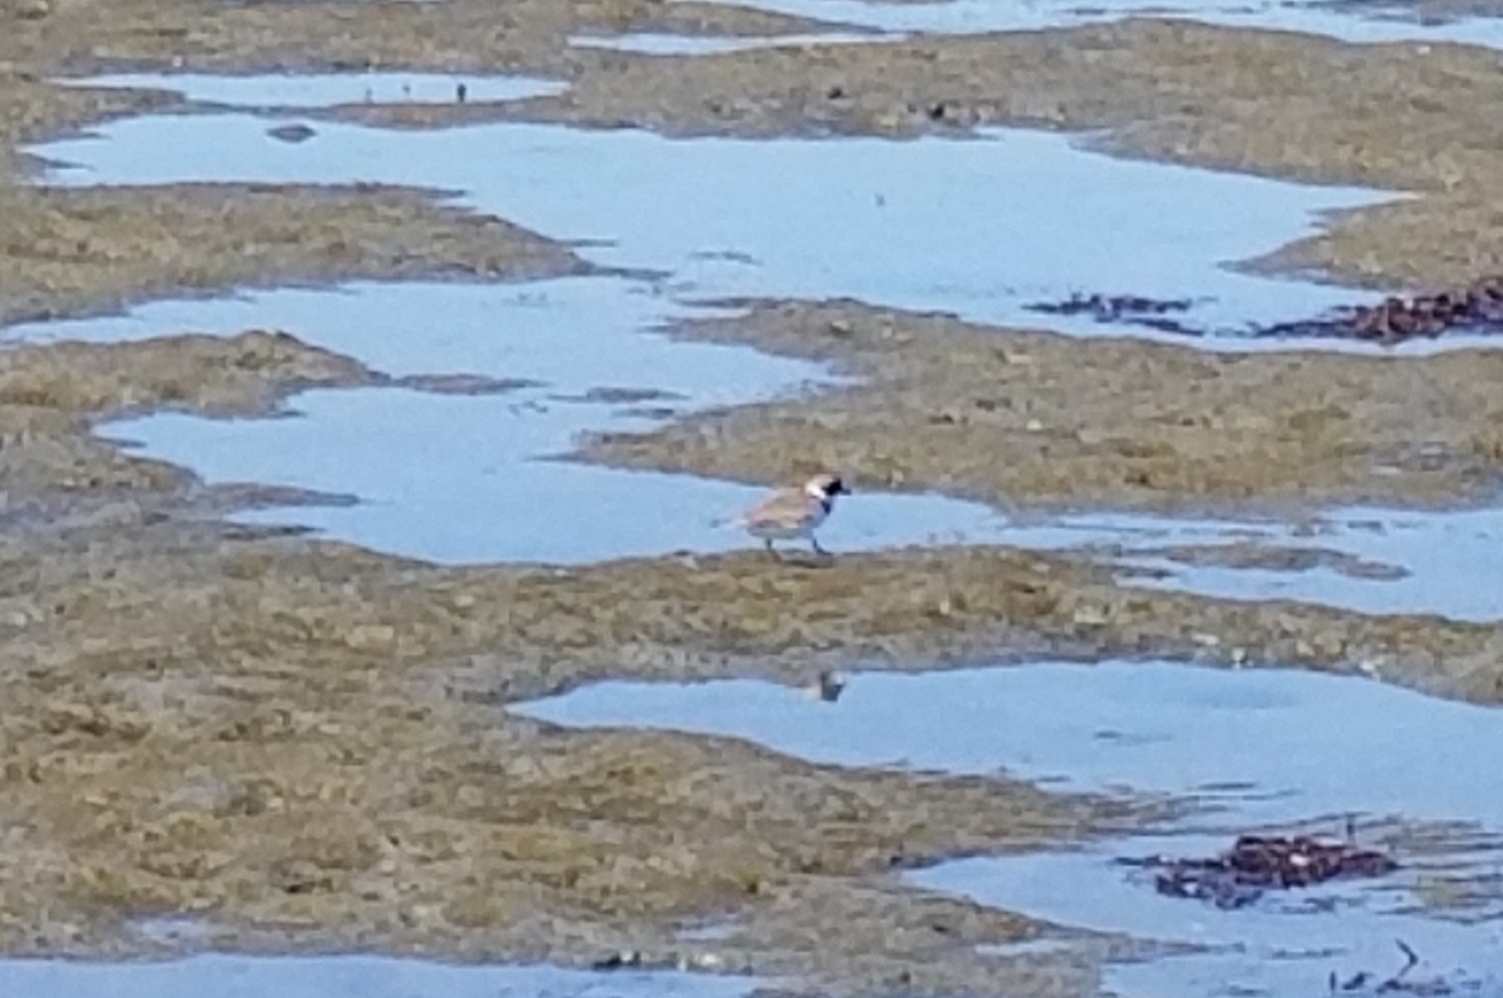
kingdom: Animalia
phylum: Chordata
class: Aves
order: Charadriiformes
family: Charadriidae
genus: Charadrius
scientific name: Charadrius semipalmatus
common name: Semipalmated plover
